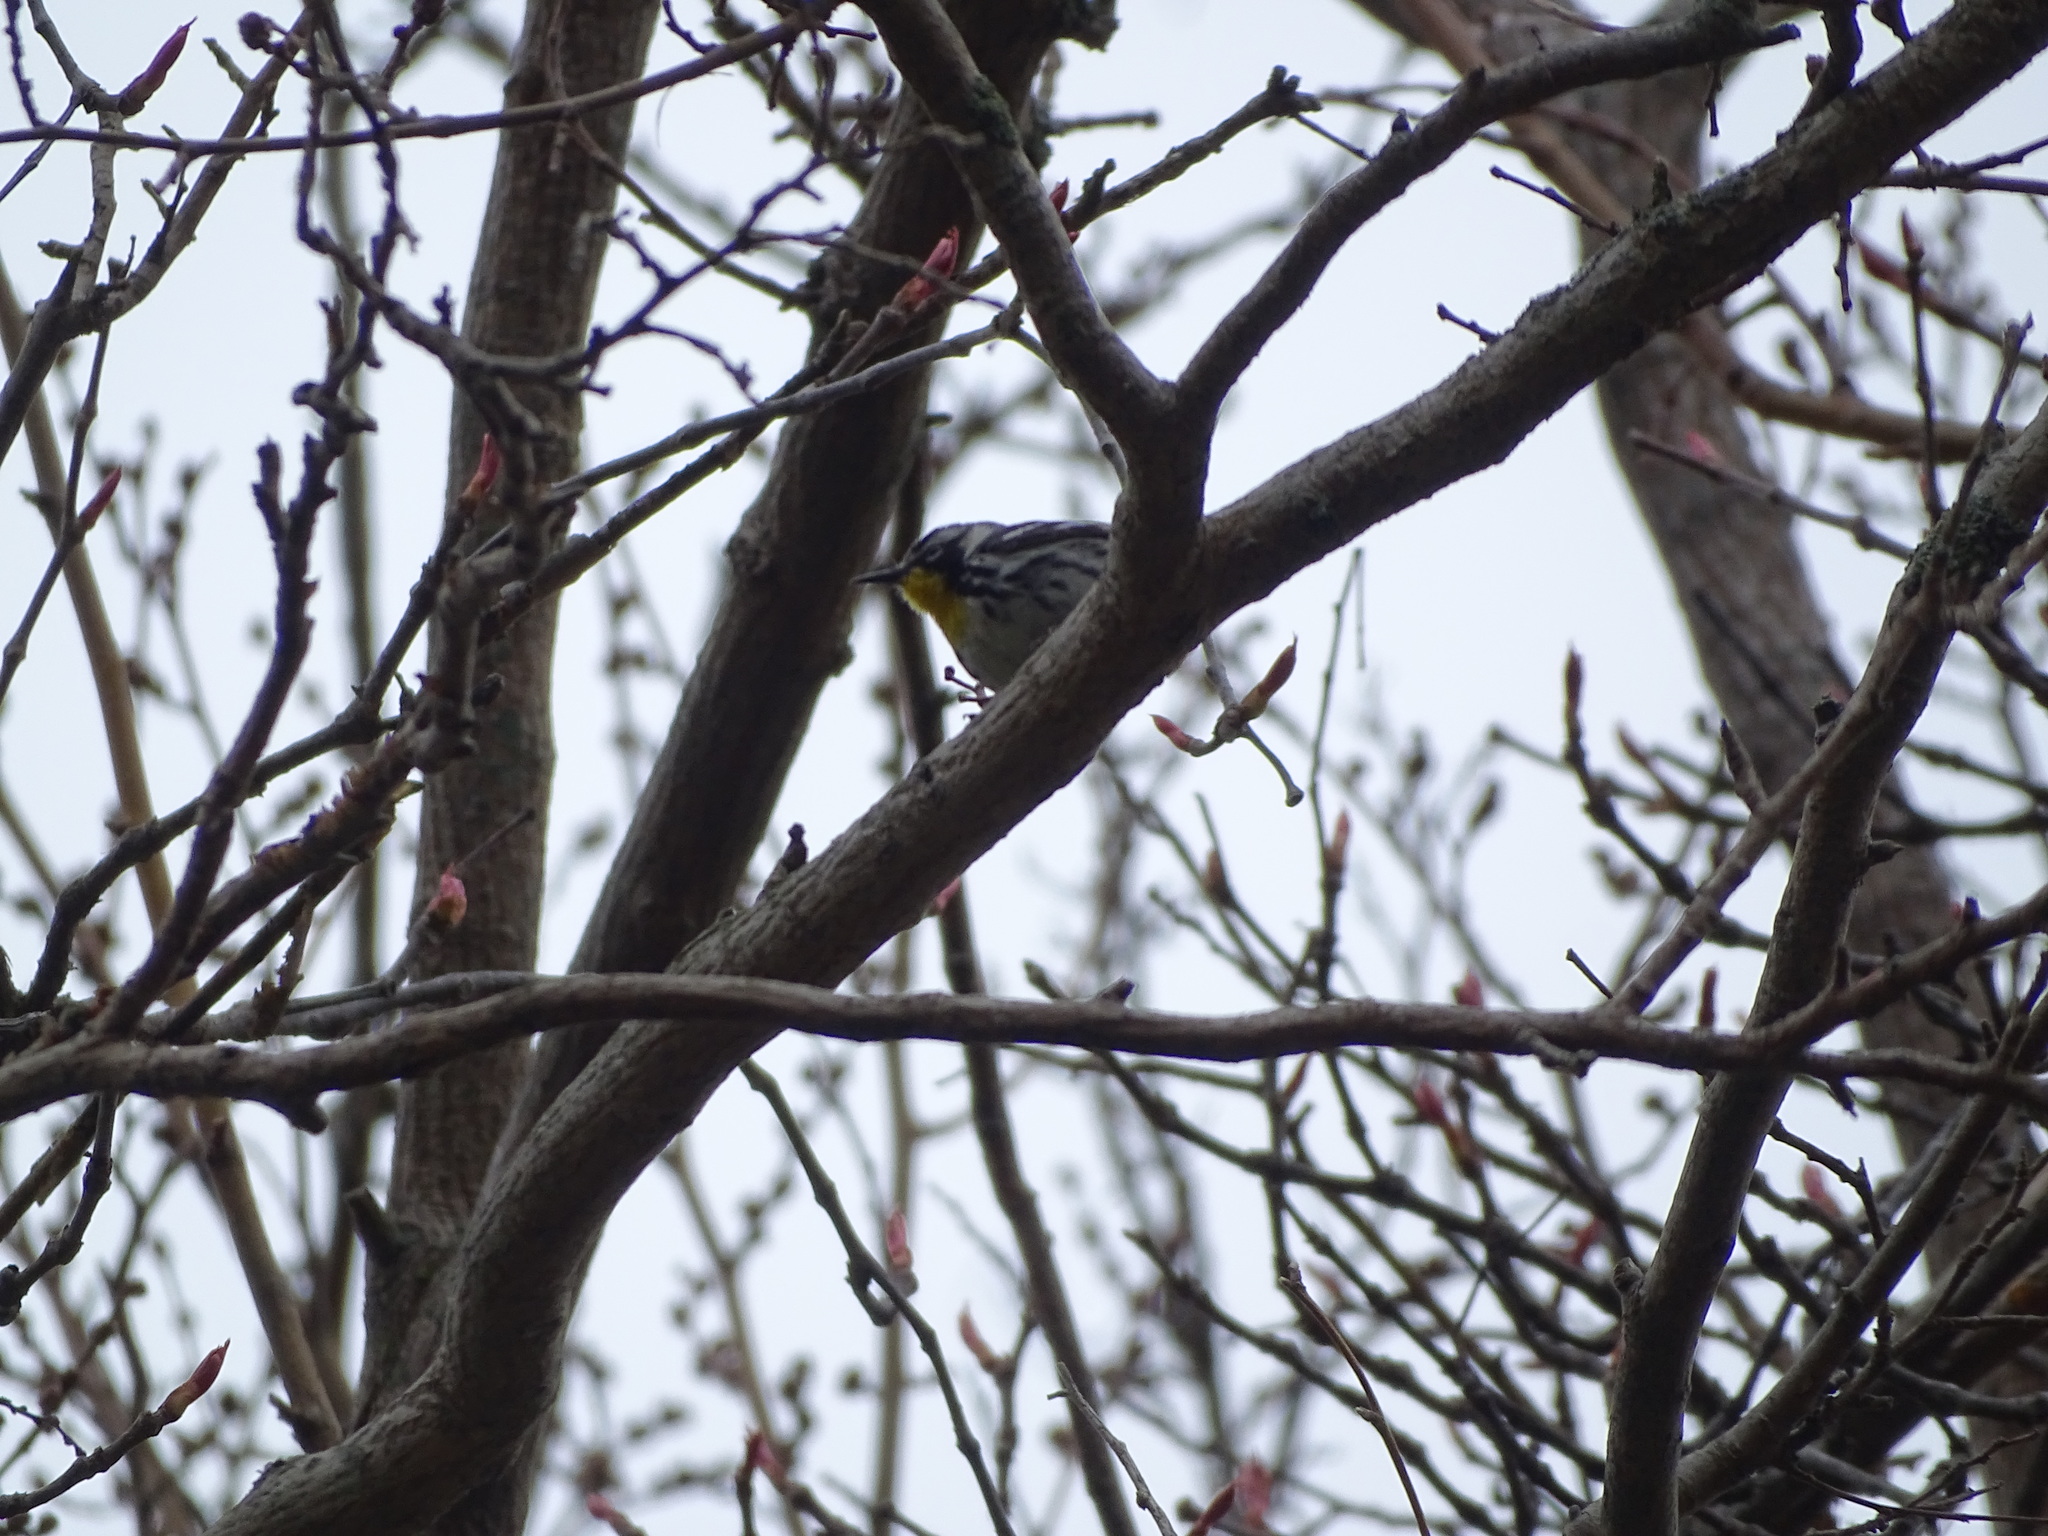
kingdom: Animalia
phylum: Chordata
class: Aves
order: Passeriformes
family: Parulidae
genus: Setophaga
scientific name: Setophaga dominica
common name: Yellow-throated warbler
